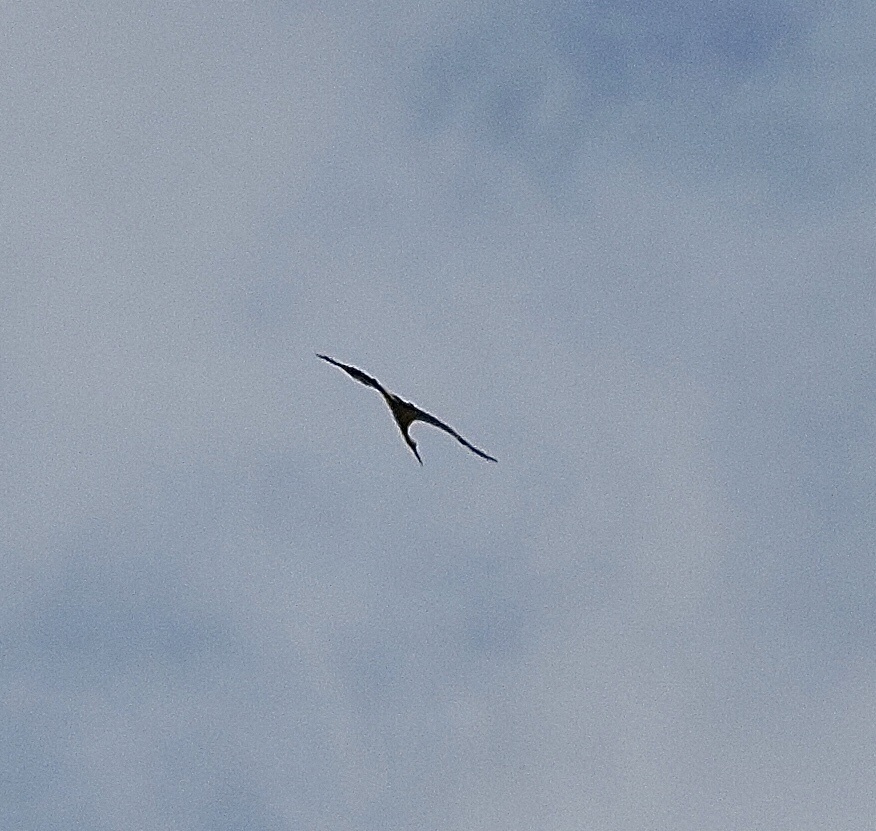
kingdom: Animalia
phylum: Chordata
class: Aves
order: Ciconiiformes
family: Ciconiidae
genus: Ciconia
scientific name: Ciconia ciconia
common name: White stork
